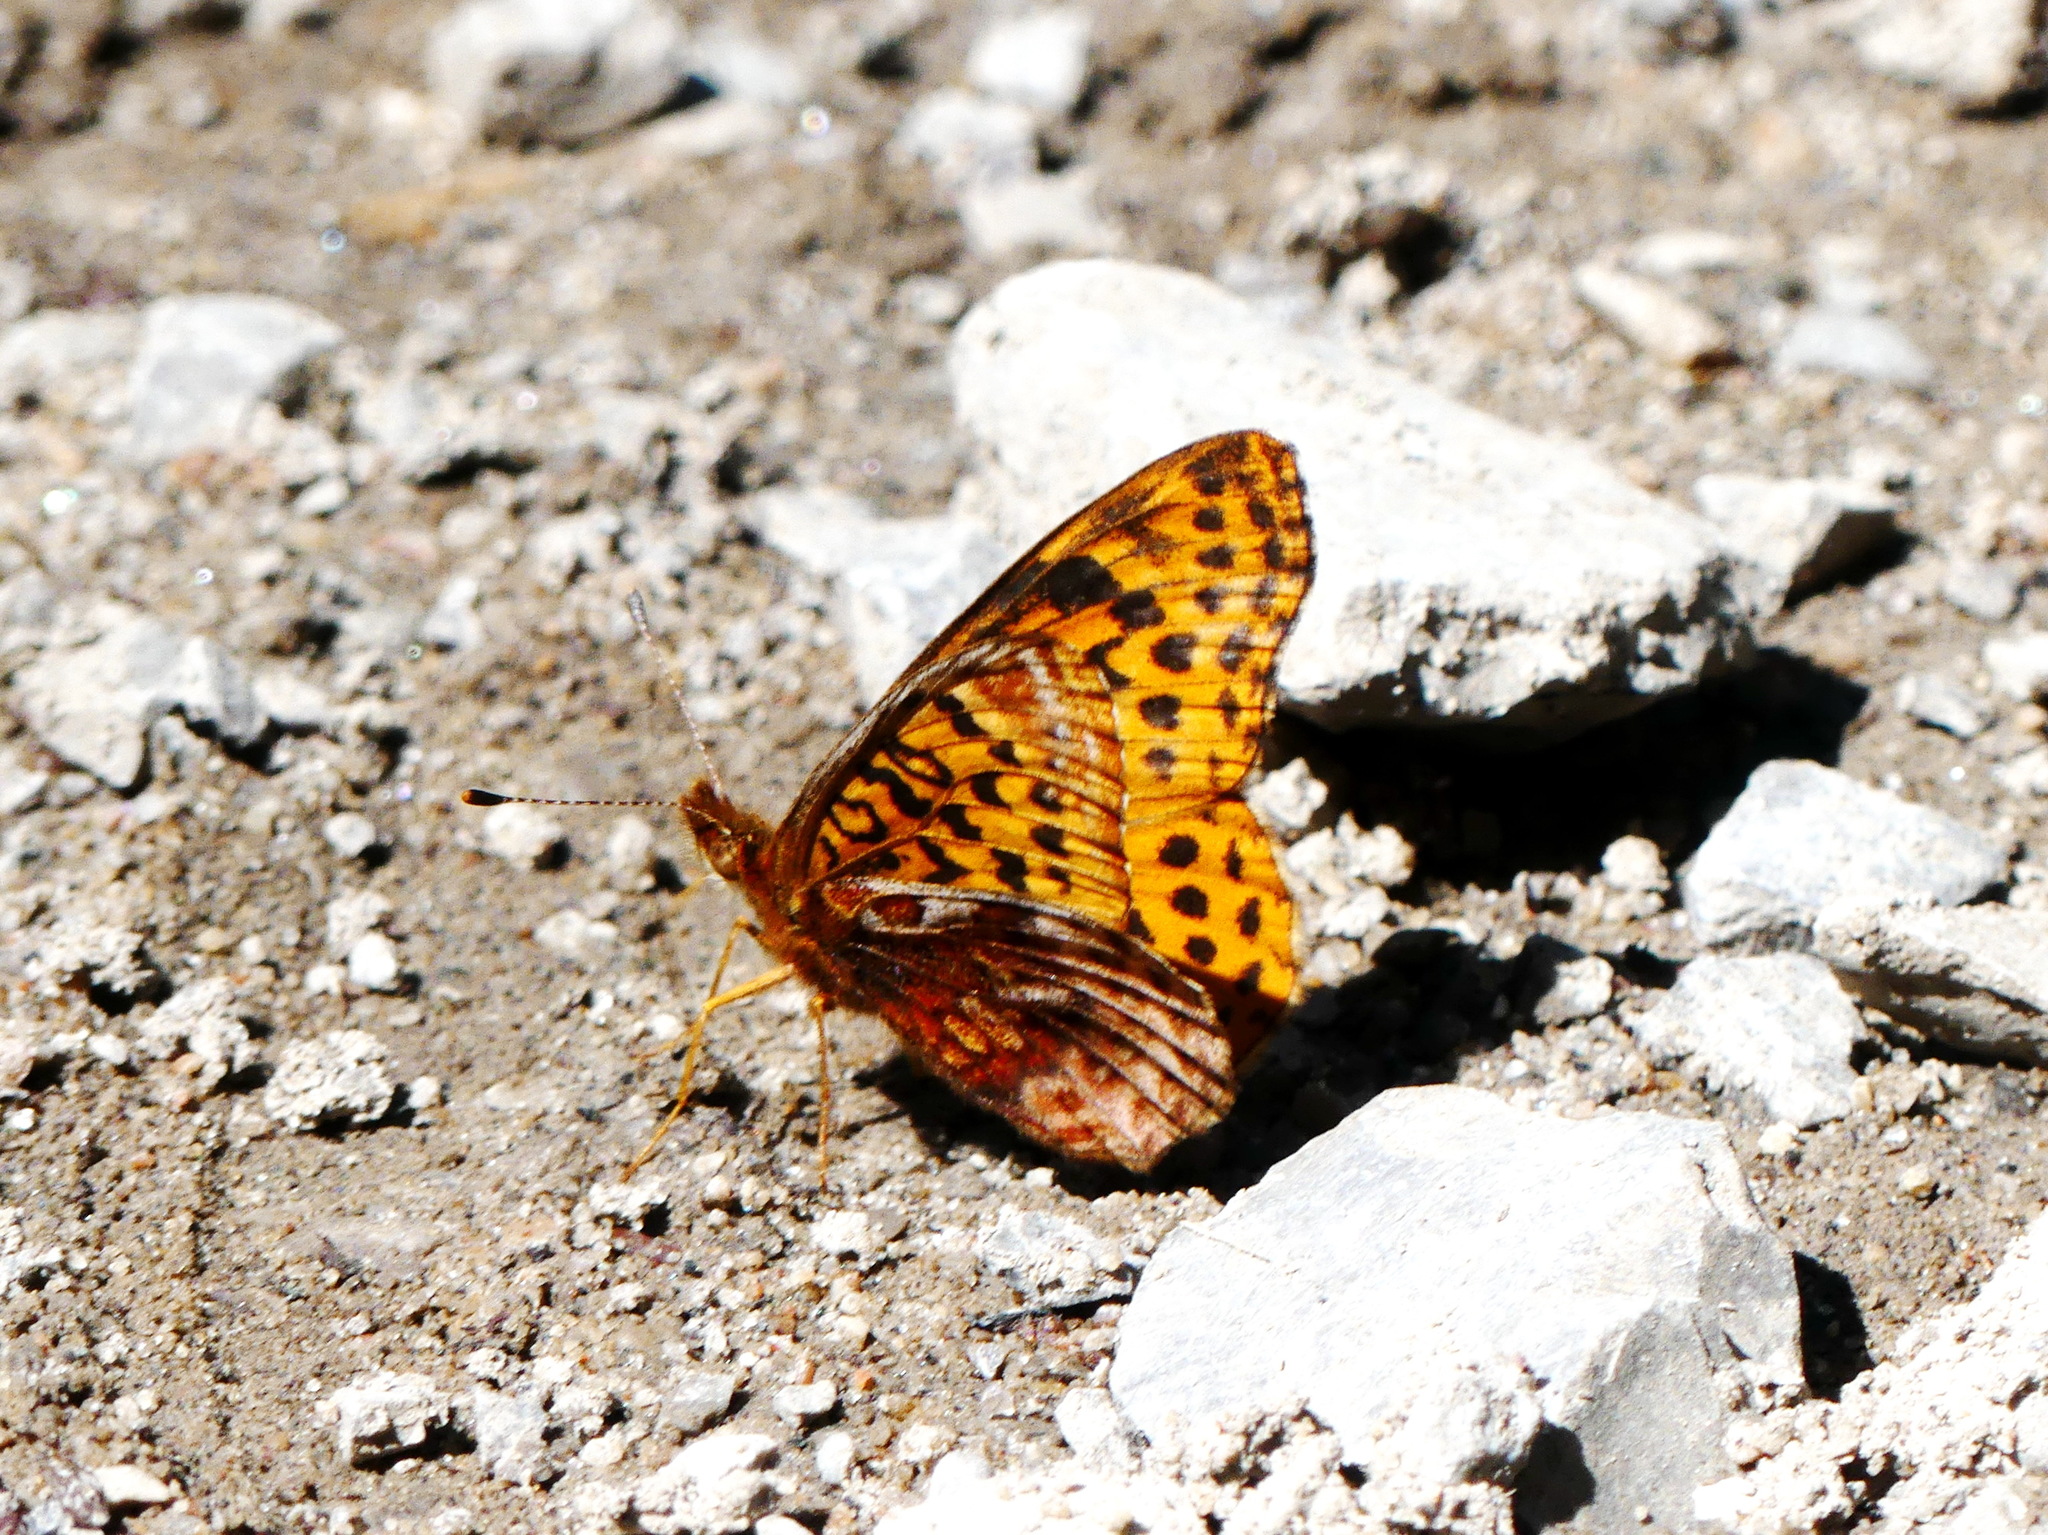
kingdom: Animalia
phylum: Arthropoda
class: Insecta
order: Lepidoptera
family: Nymphalidae
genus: Clossiana
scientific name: Clossiana toddi
